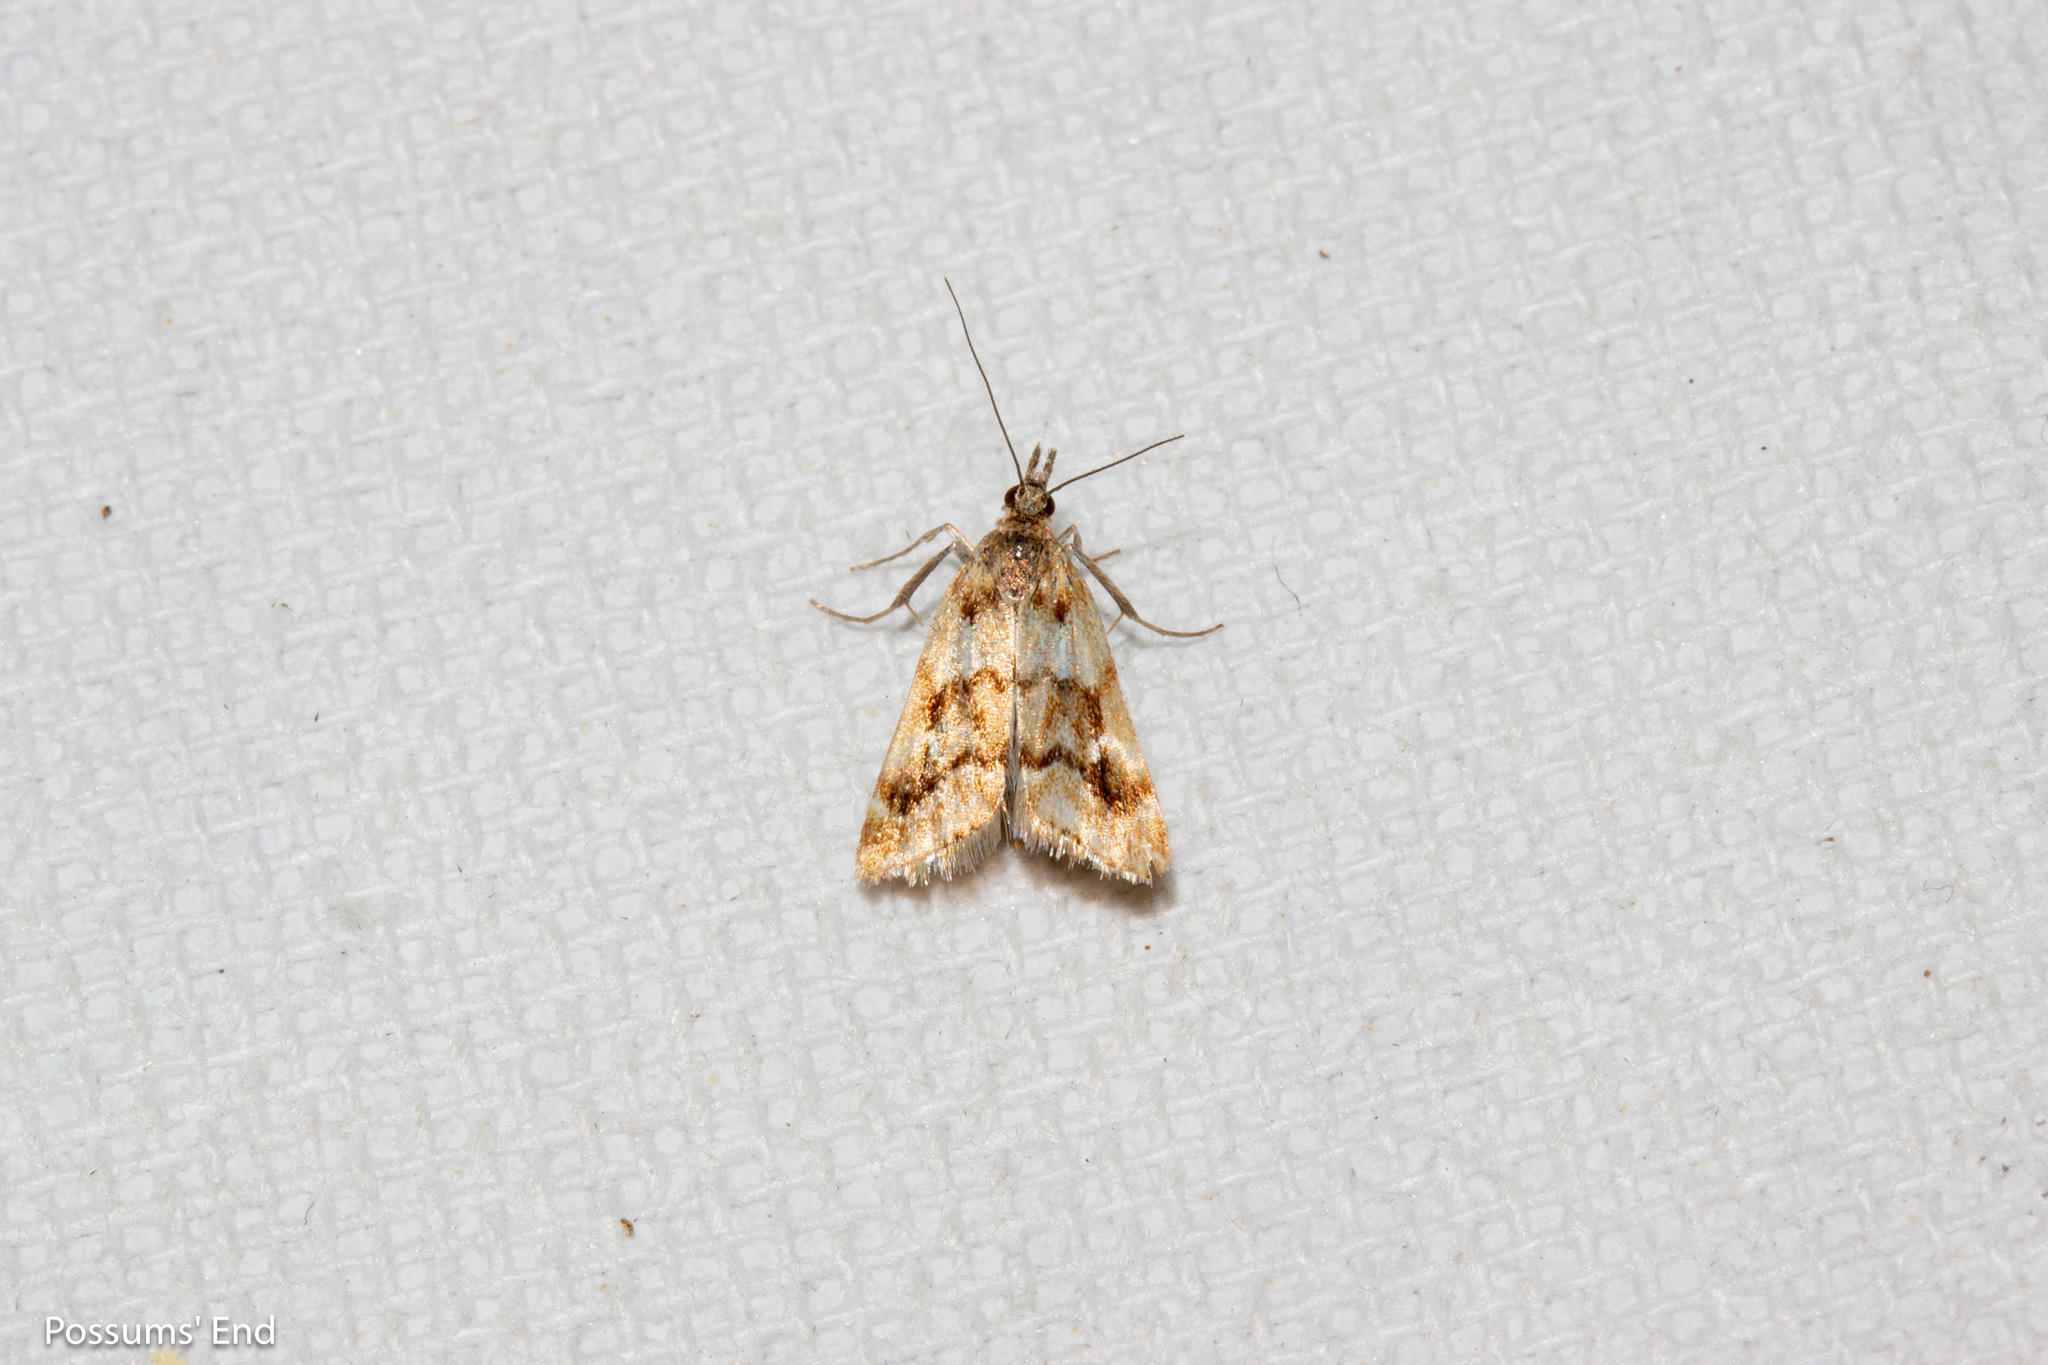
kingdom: Animalia
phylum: Arthropoda
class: Insecta
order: Lepidoptera
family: Crambidae
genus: Glaucocharis
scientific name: Glaucocharis helioctypa
